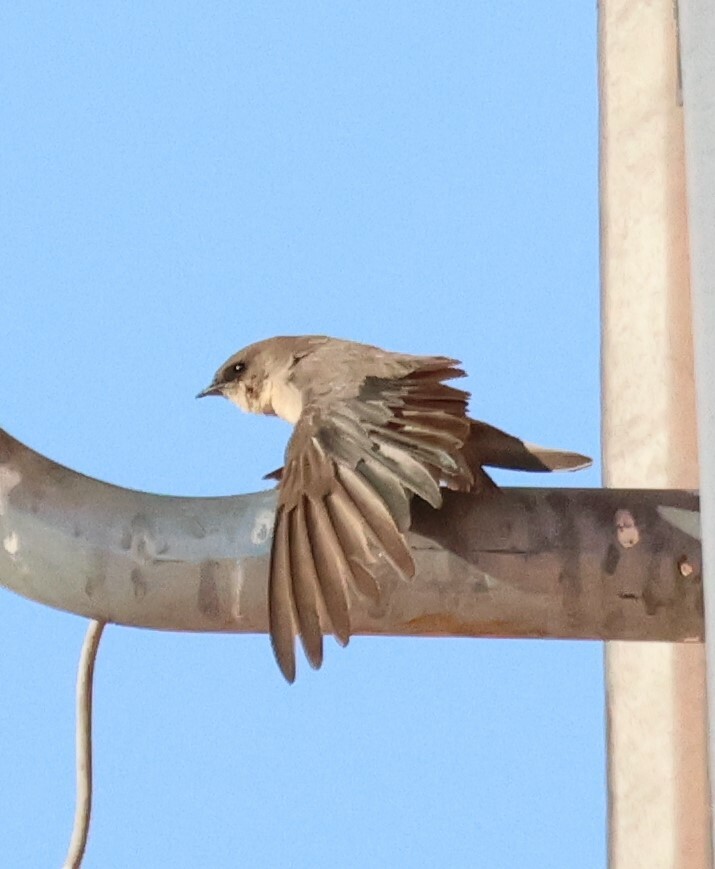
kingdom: Animalia
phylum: Chordata
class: Aves
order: Passeriformes
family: Hirundinidae
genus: Ptyonoprogne
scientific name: Ptyonoprogne fuligula
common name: Rock martin
